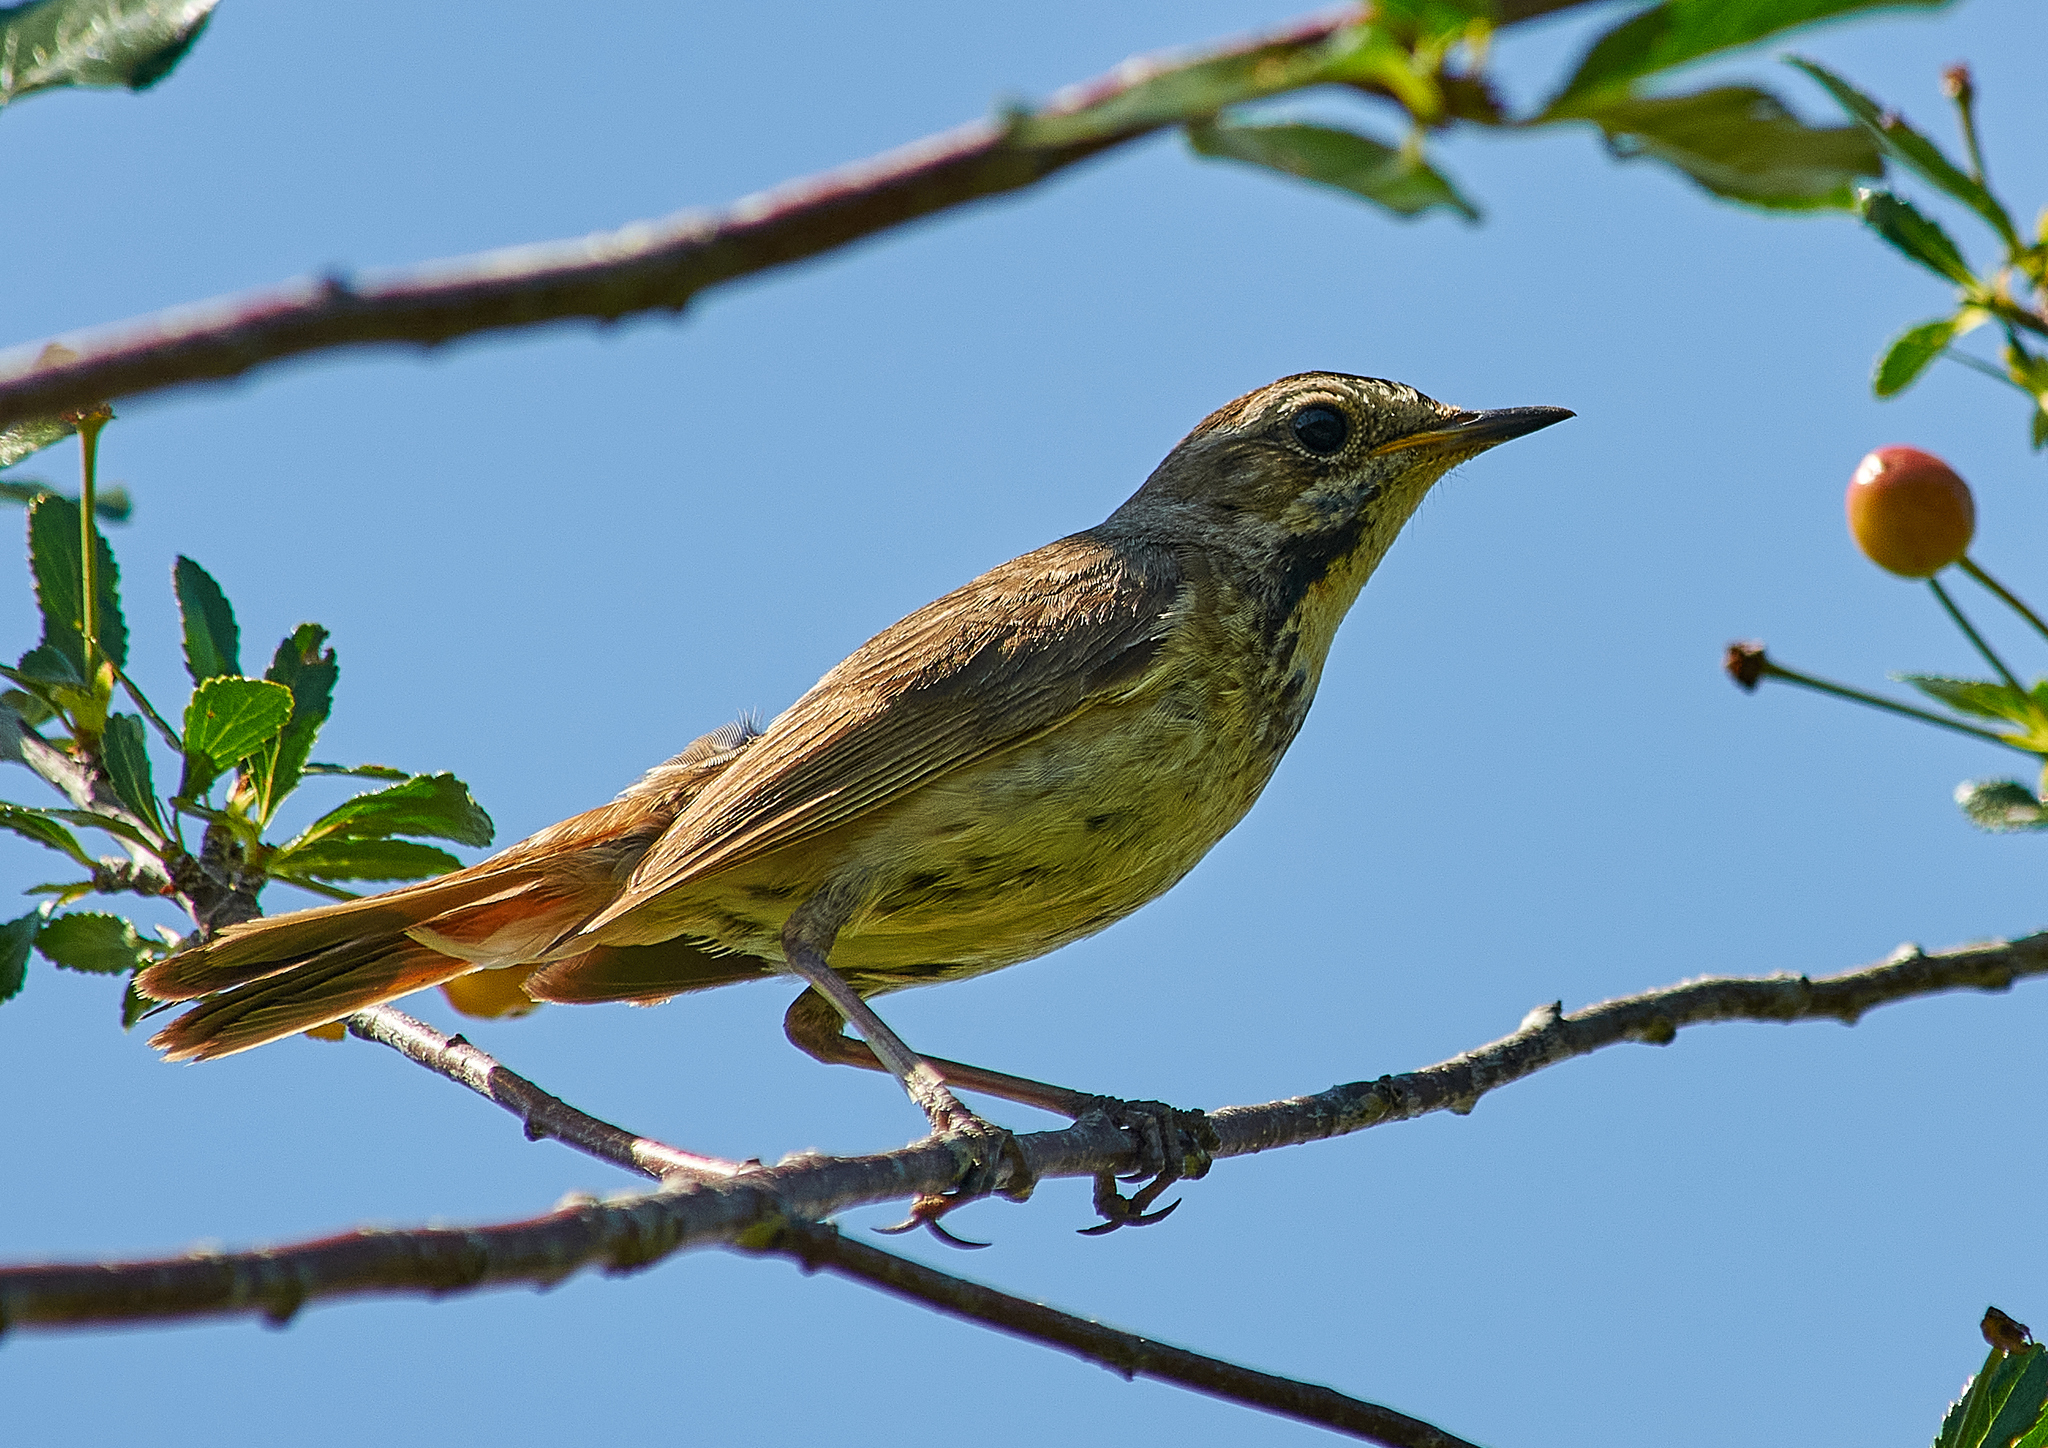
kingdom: Animalia
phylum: Chordata
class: Aves
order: Passeriformes
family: Muscicapidae
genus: Luscinia
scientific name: Luscinia svecica
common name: Bluethroat
